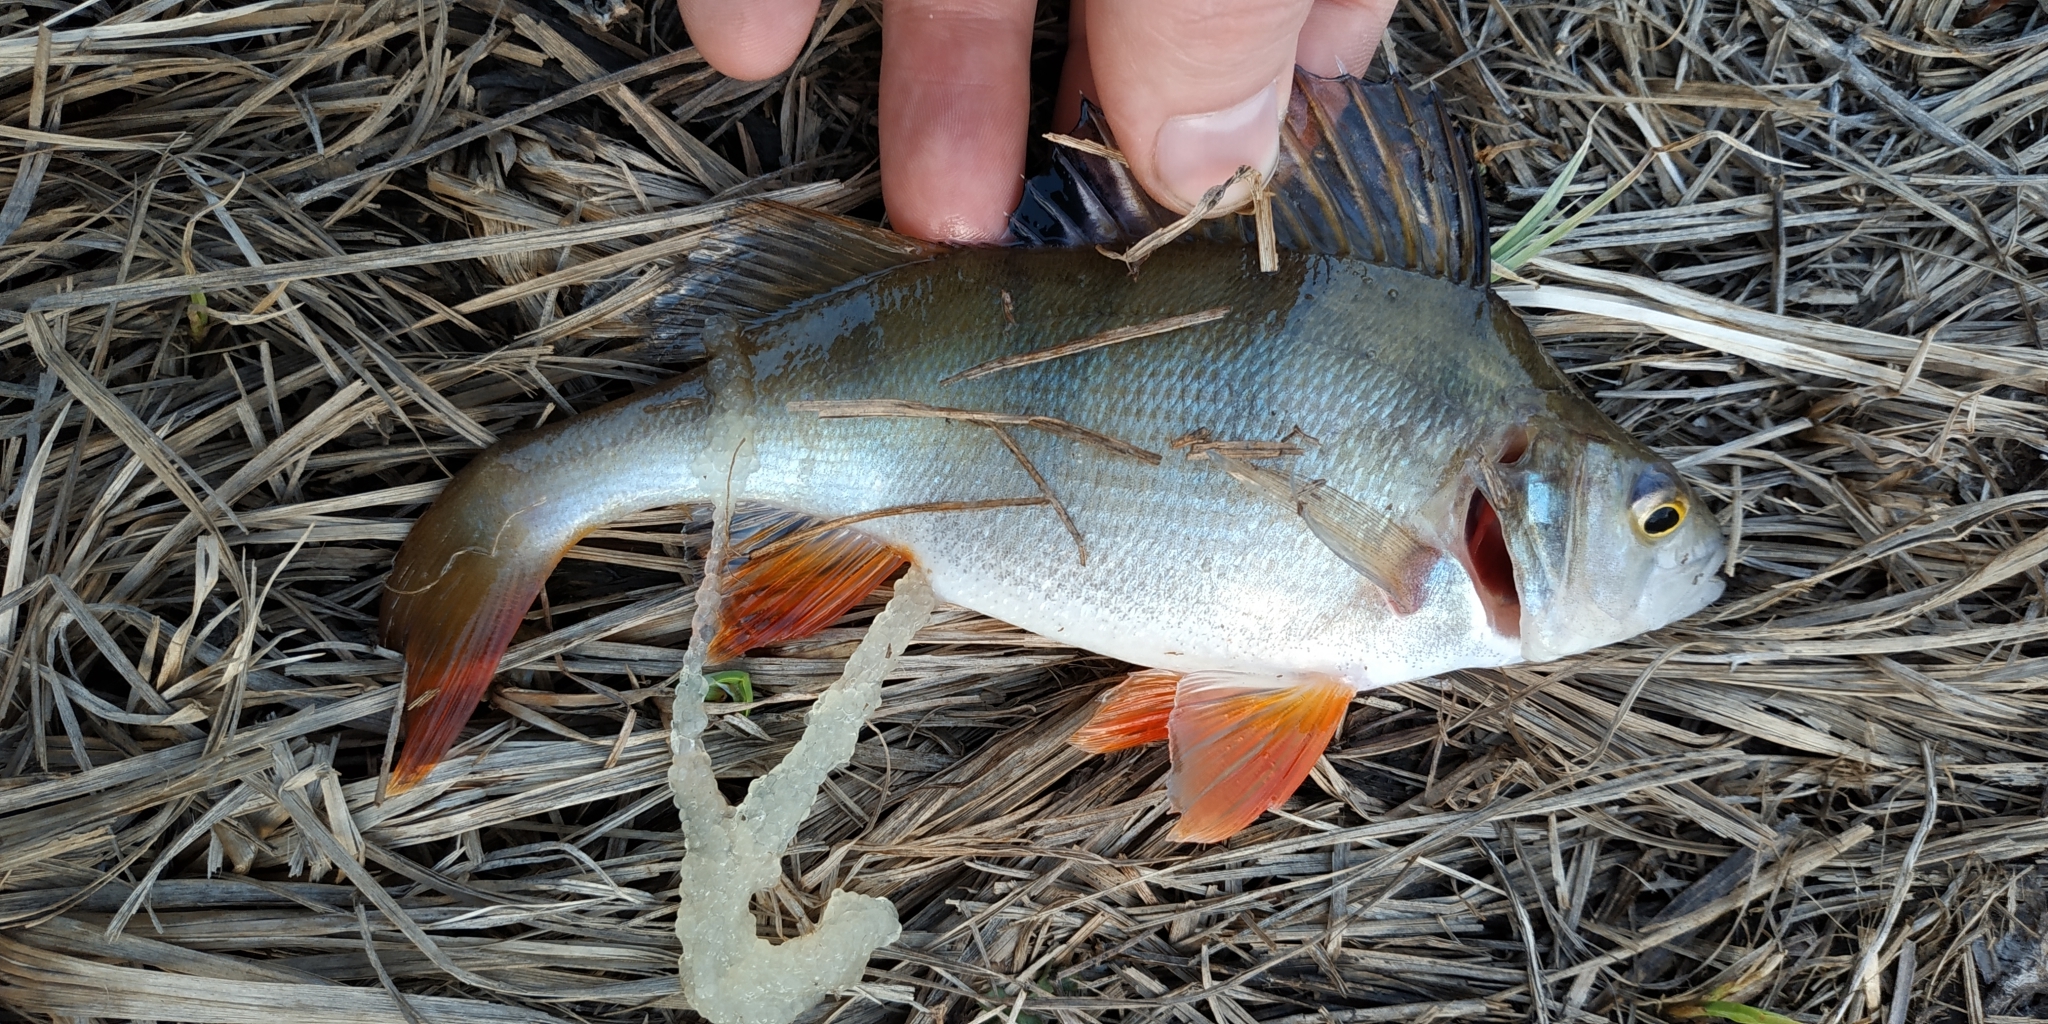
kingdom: Animalia
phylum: Chordata
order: Perciformes
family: Percidae
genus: Perca
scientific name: Perca fluviatilis
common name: Perch
